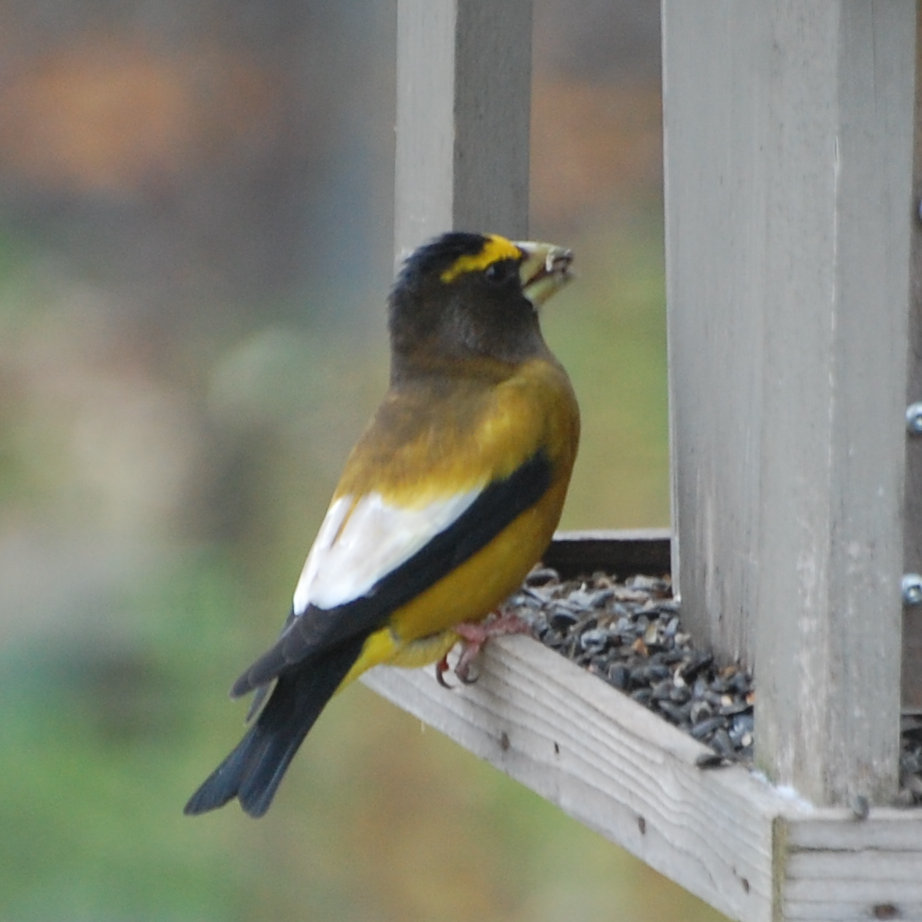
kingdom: Animalia
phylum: Chordata
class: Aves
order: Passeriformes
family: Fringillidae
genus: Hesperiphona
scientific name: Hesperiphona vespertina
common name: Evening grosbeak
